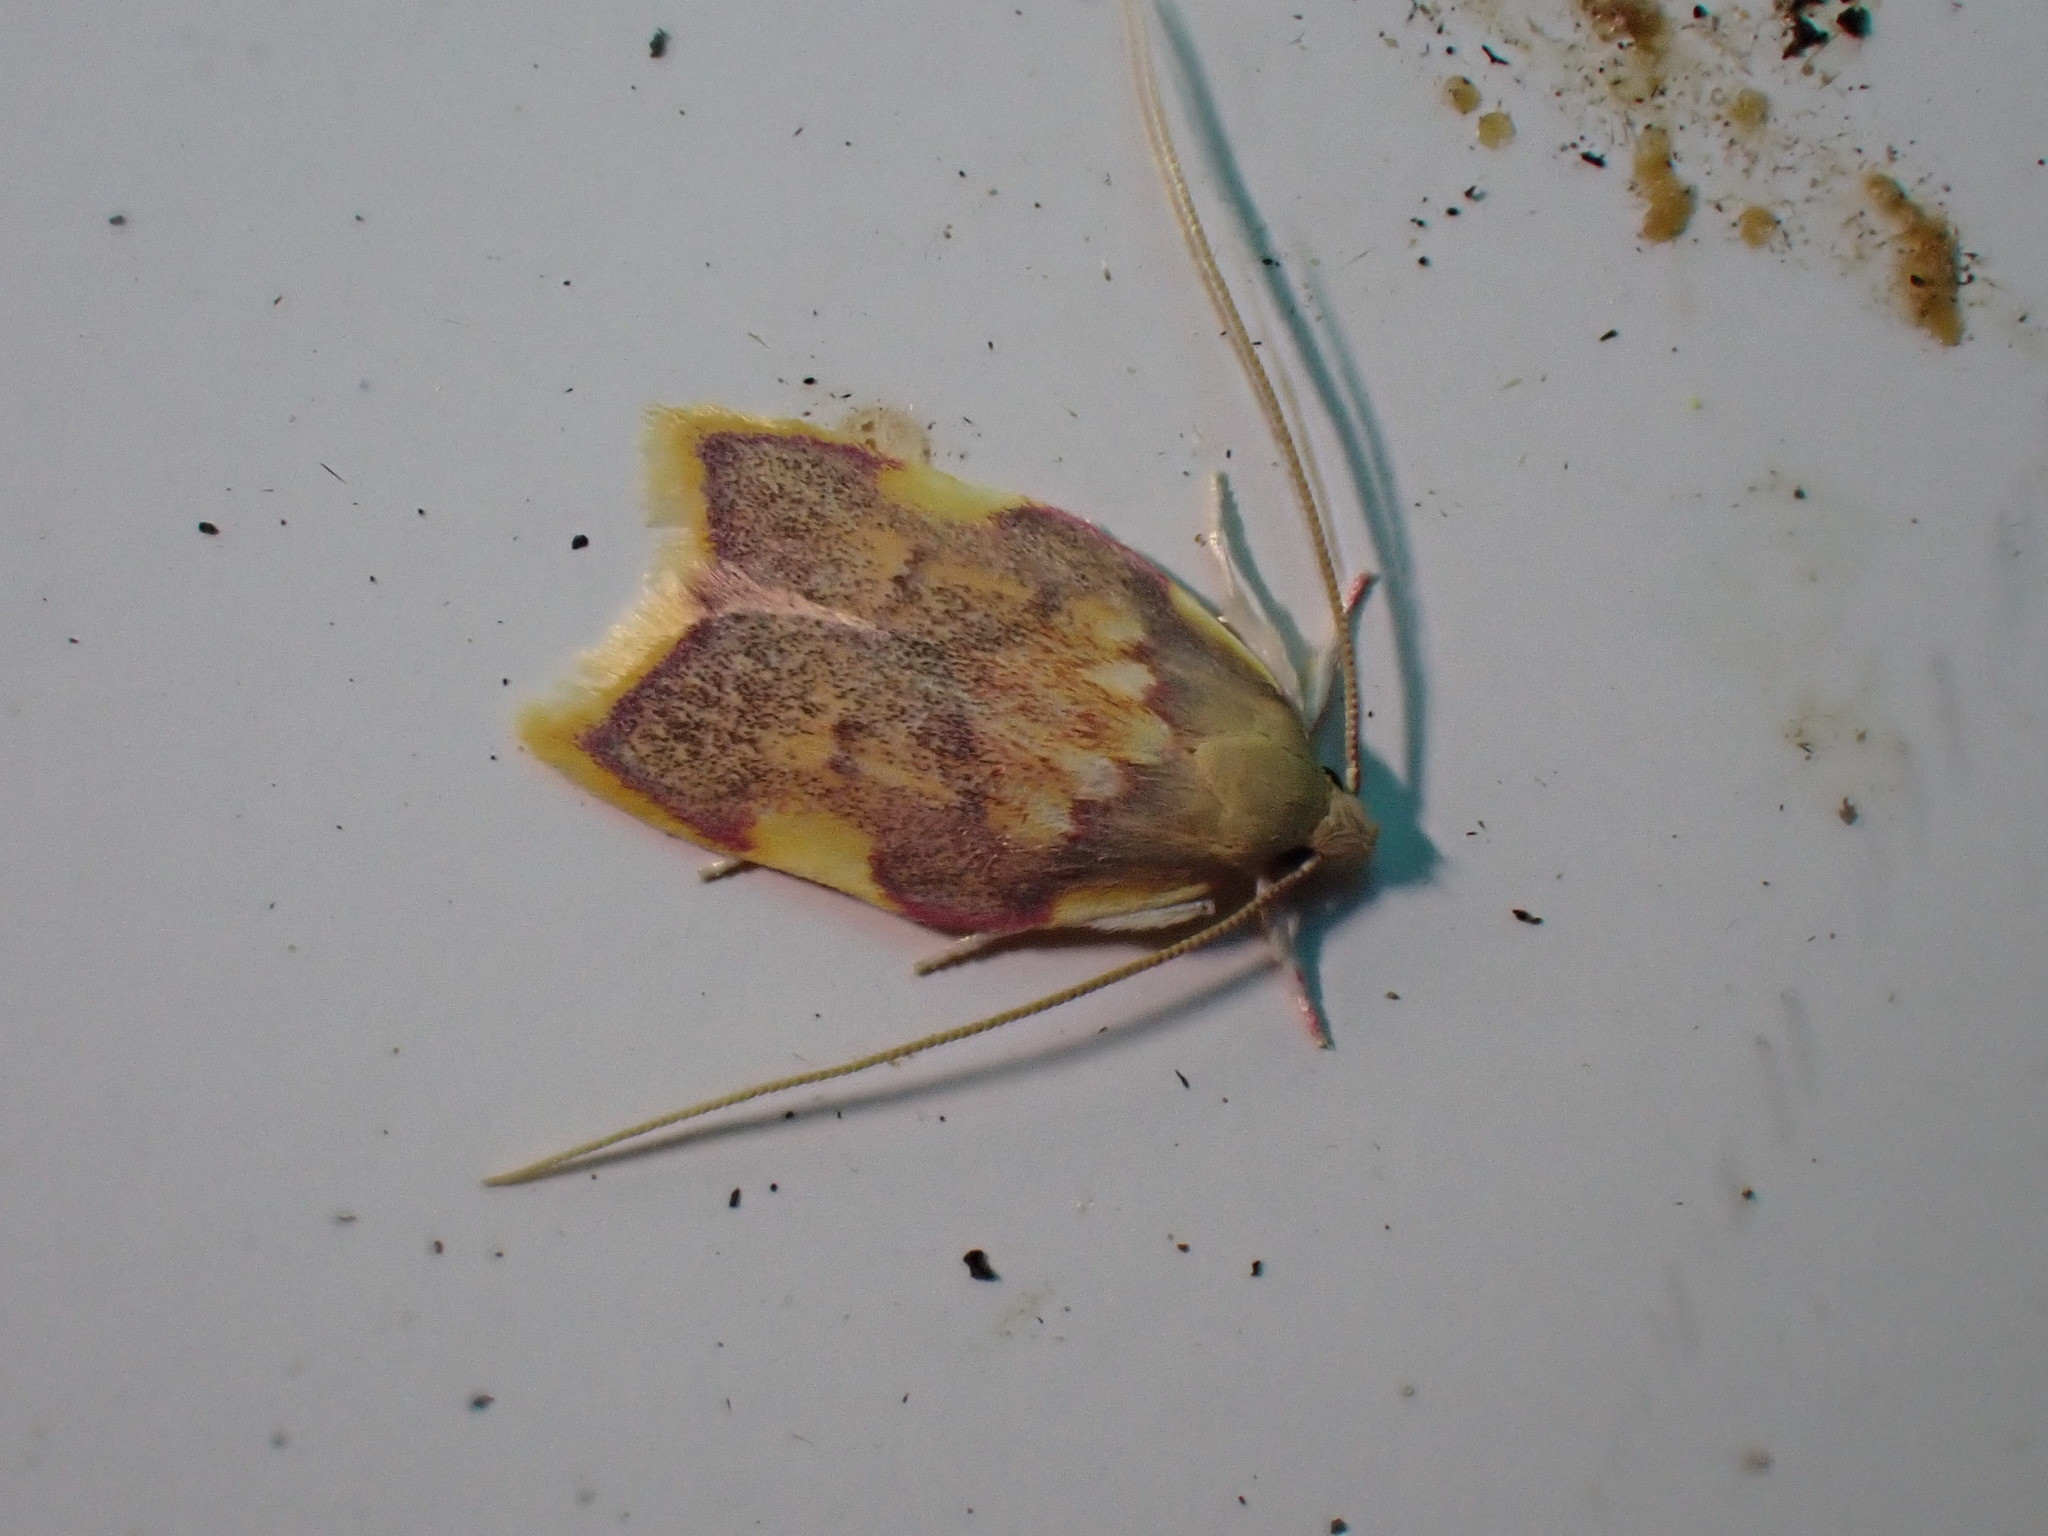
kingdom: Animalia
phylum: Arthropoda
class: Insecta
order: Lepidoptera
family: Peleopodidae
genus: Carcina
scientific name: Carcina quercana
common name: Moth
